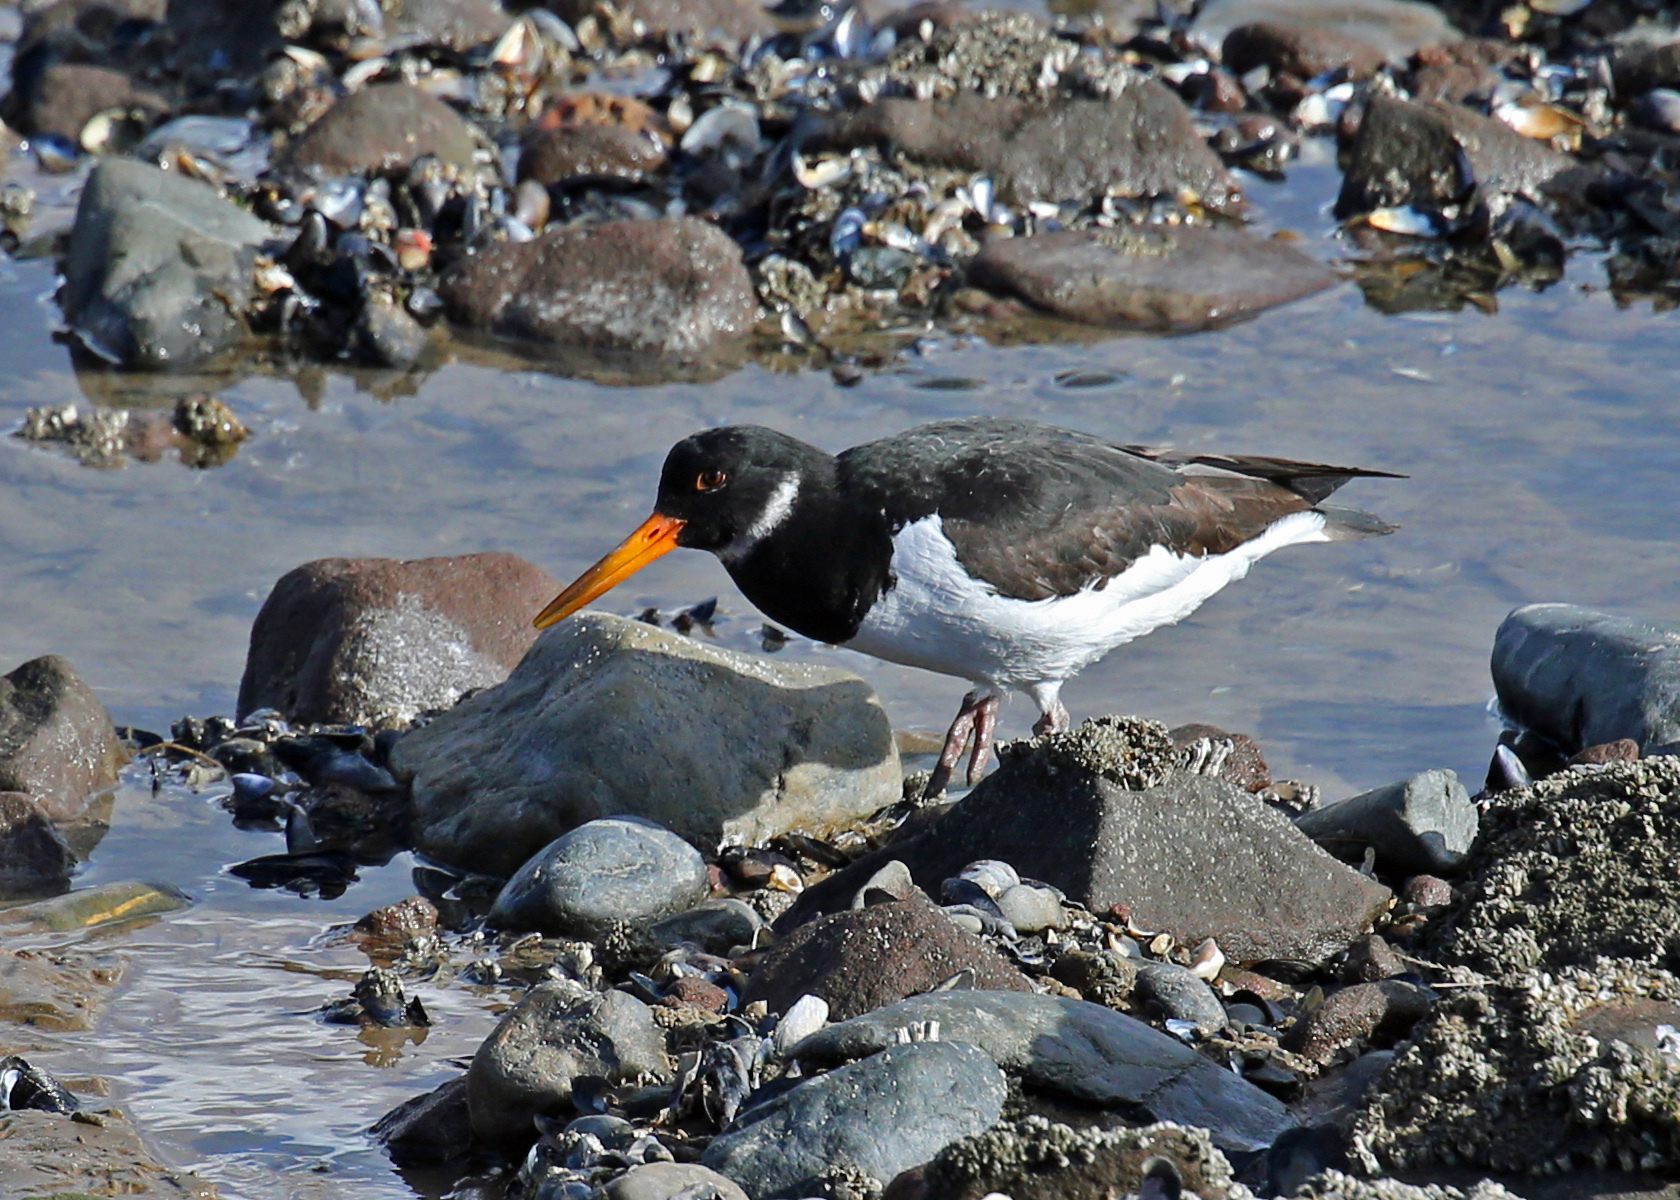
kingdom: Animalia
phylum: Chordata
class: Aves
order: Charadriiformes
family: Haematopodidae
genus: Haematopus
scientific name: Haematopus ostralegus
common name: Eurasian oystercatcher
